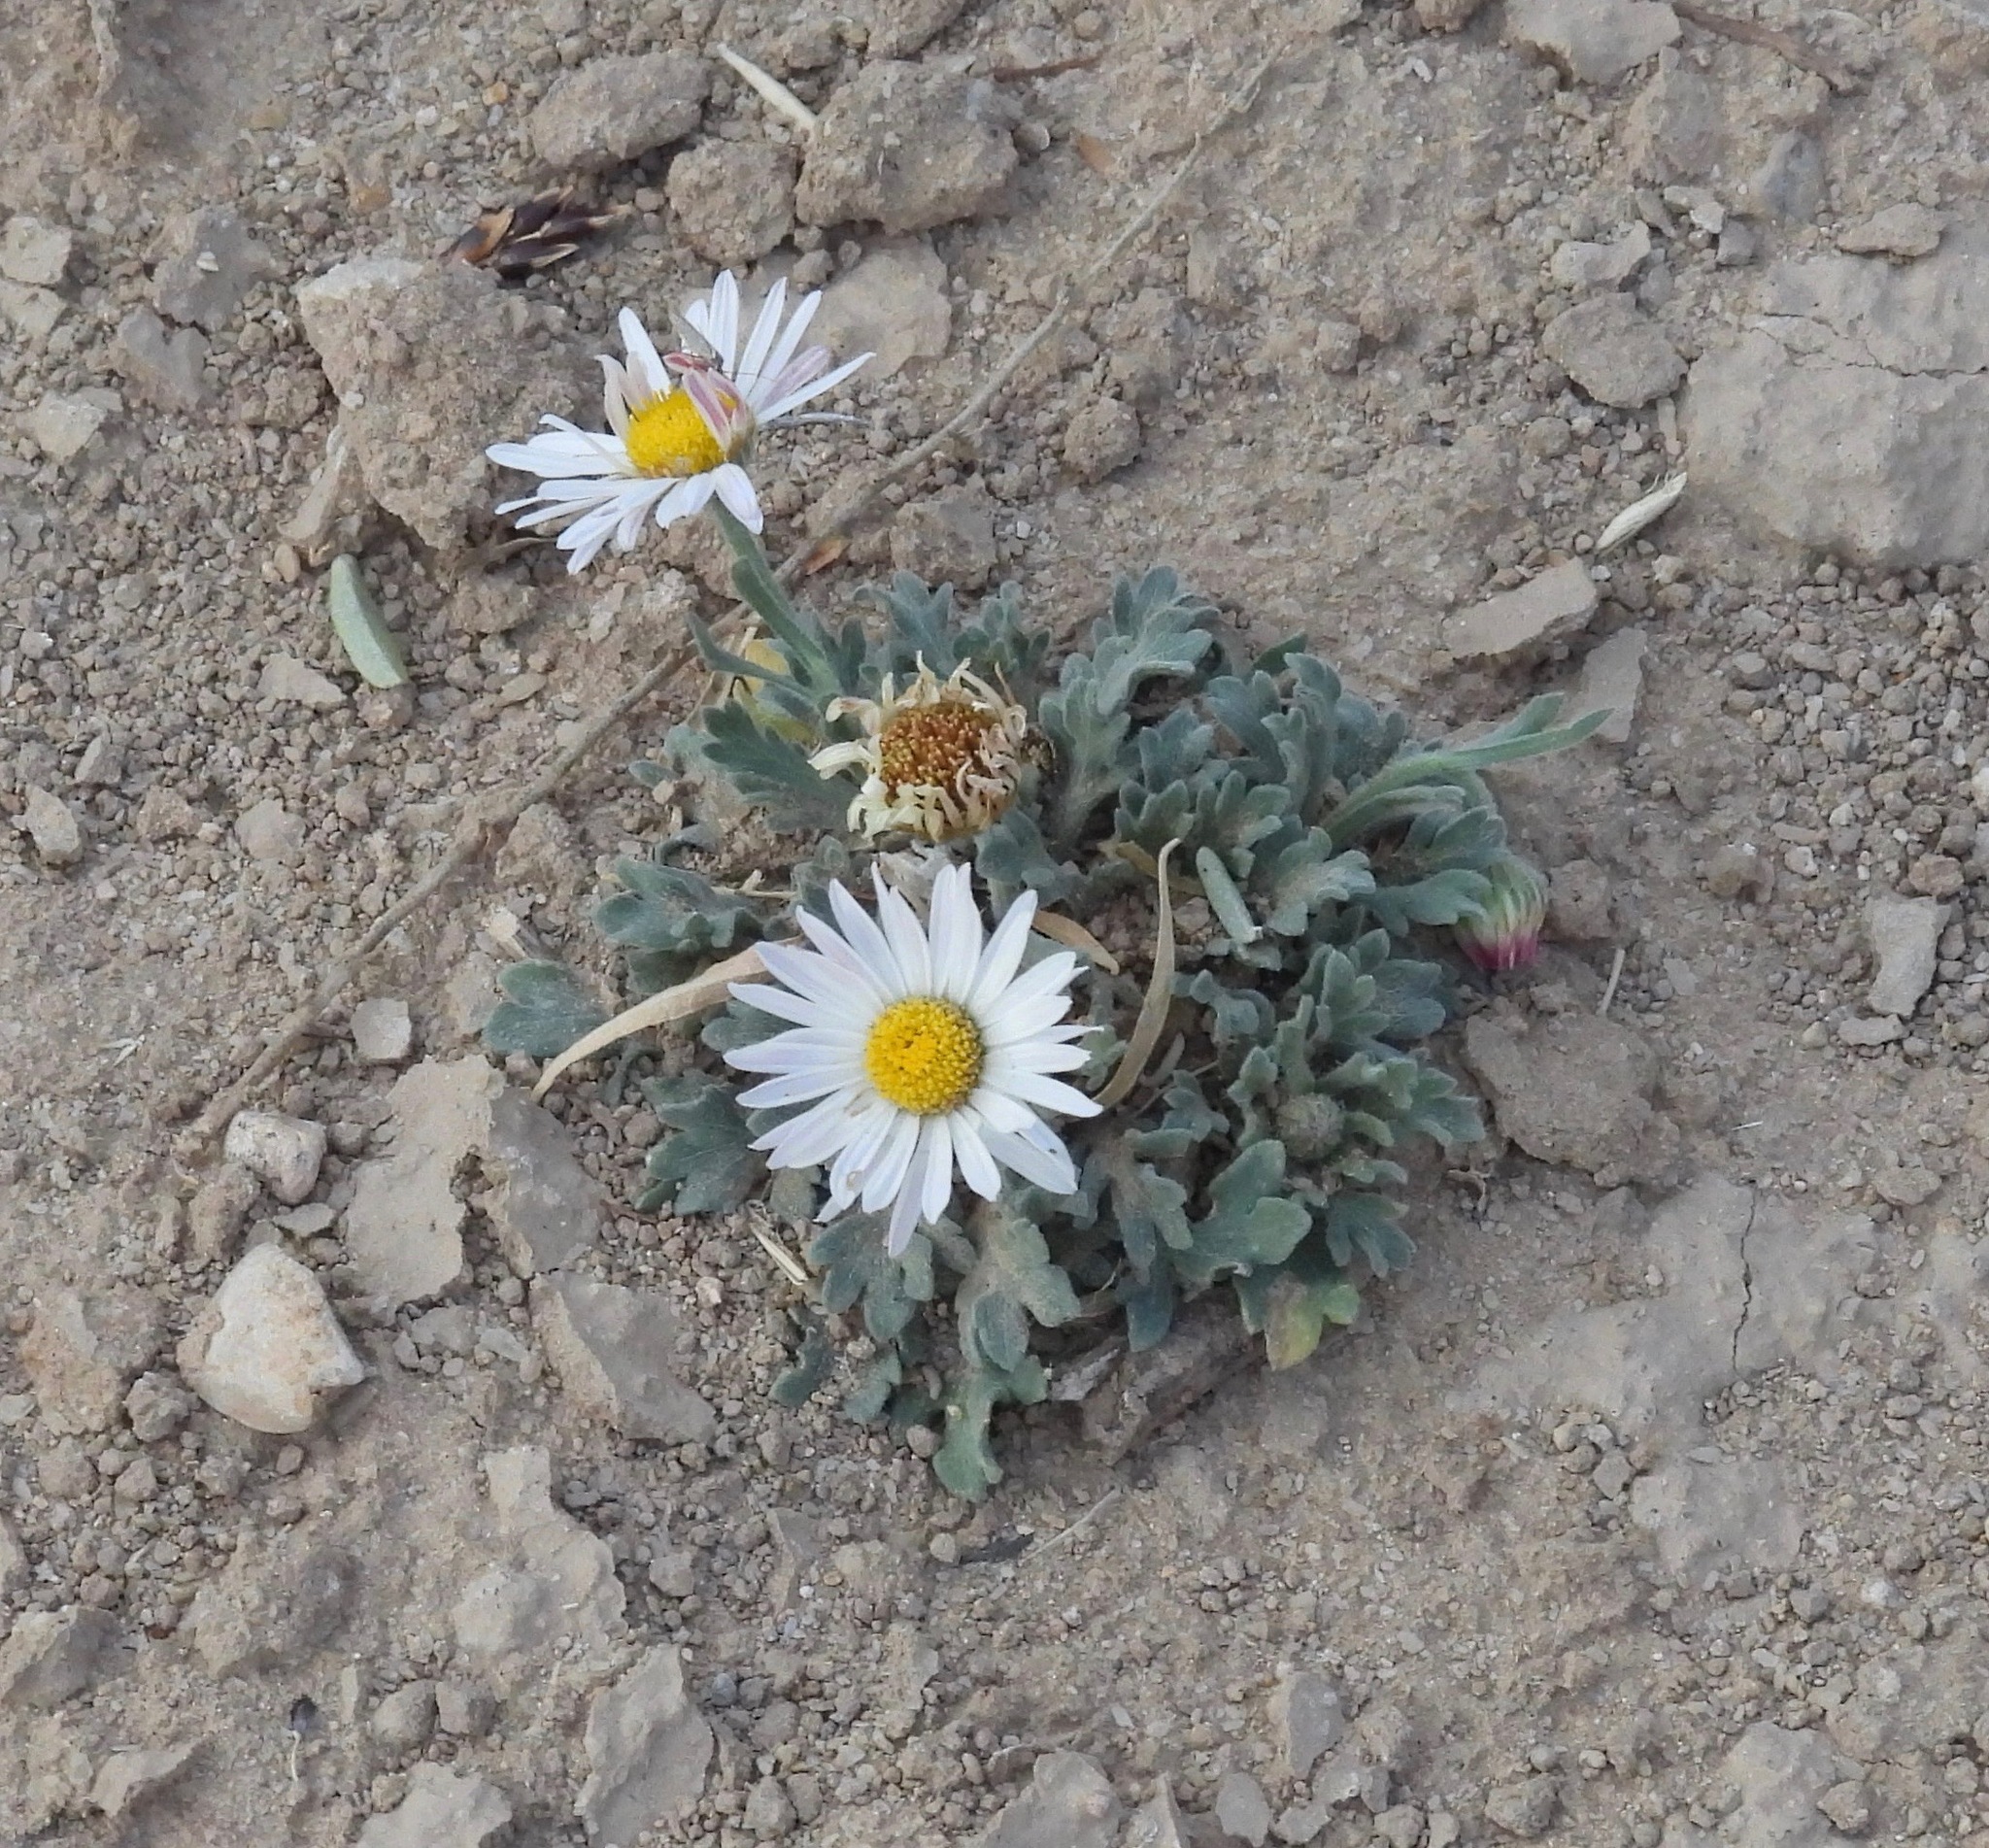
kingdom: Plantae
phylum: Tracheophyta
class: Magnoliopsida
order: Asterales
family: Asteraceae
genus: Aphanostephus
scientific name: Aphanostephus ramosissimus
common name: Plains lazy daisy
